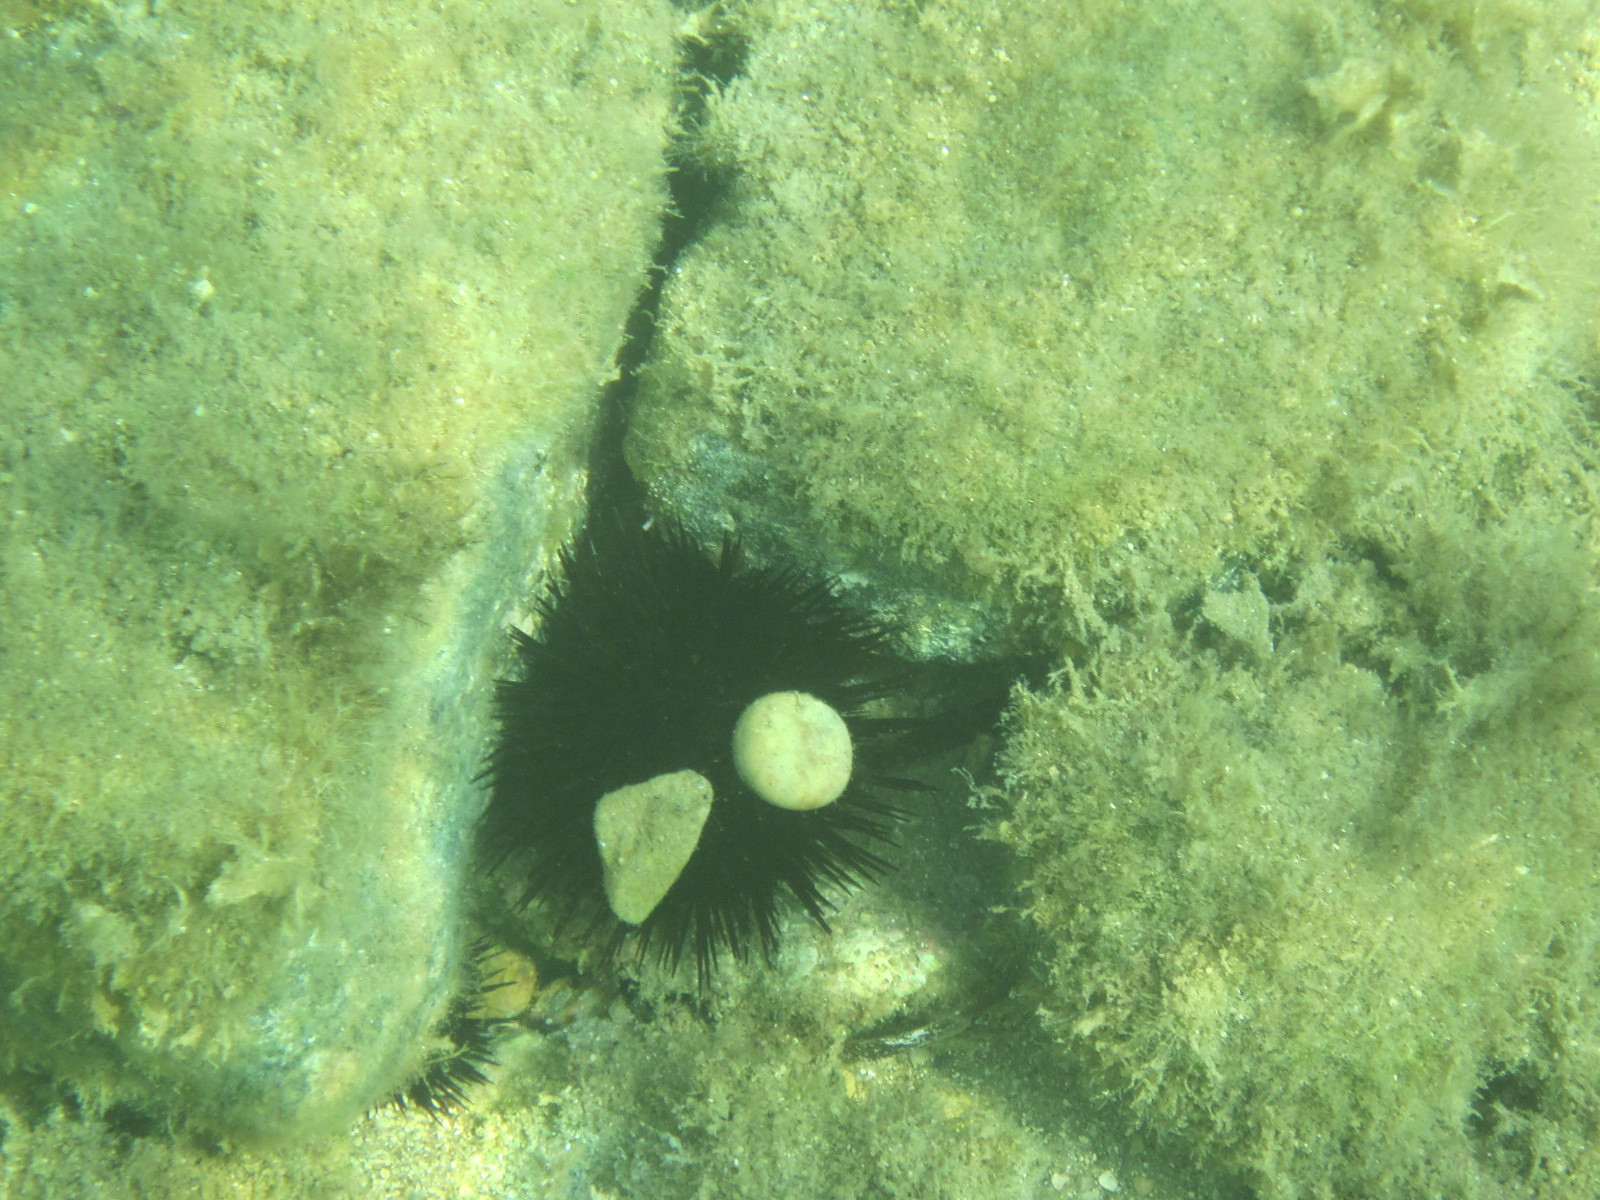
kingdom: Animalia
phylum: Echinodermata
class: Echinoidea
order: Camarodonta
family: Parechinidae
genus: Paracentrotus
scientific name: Paracentrotus lividus
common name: Purple sea urchin
